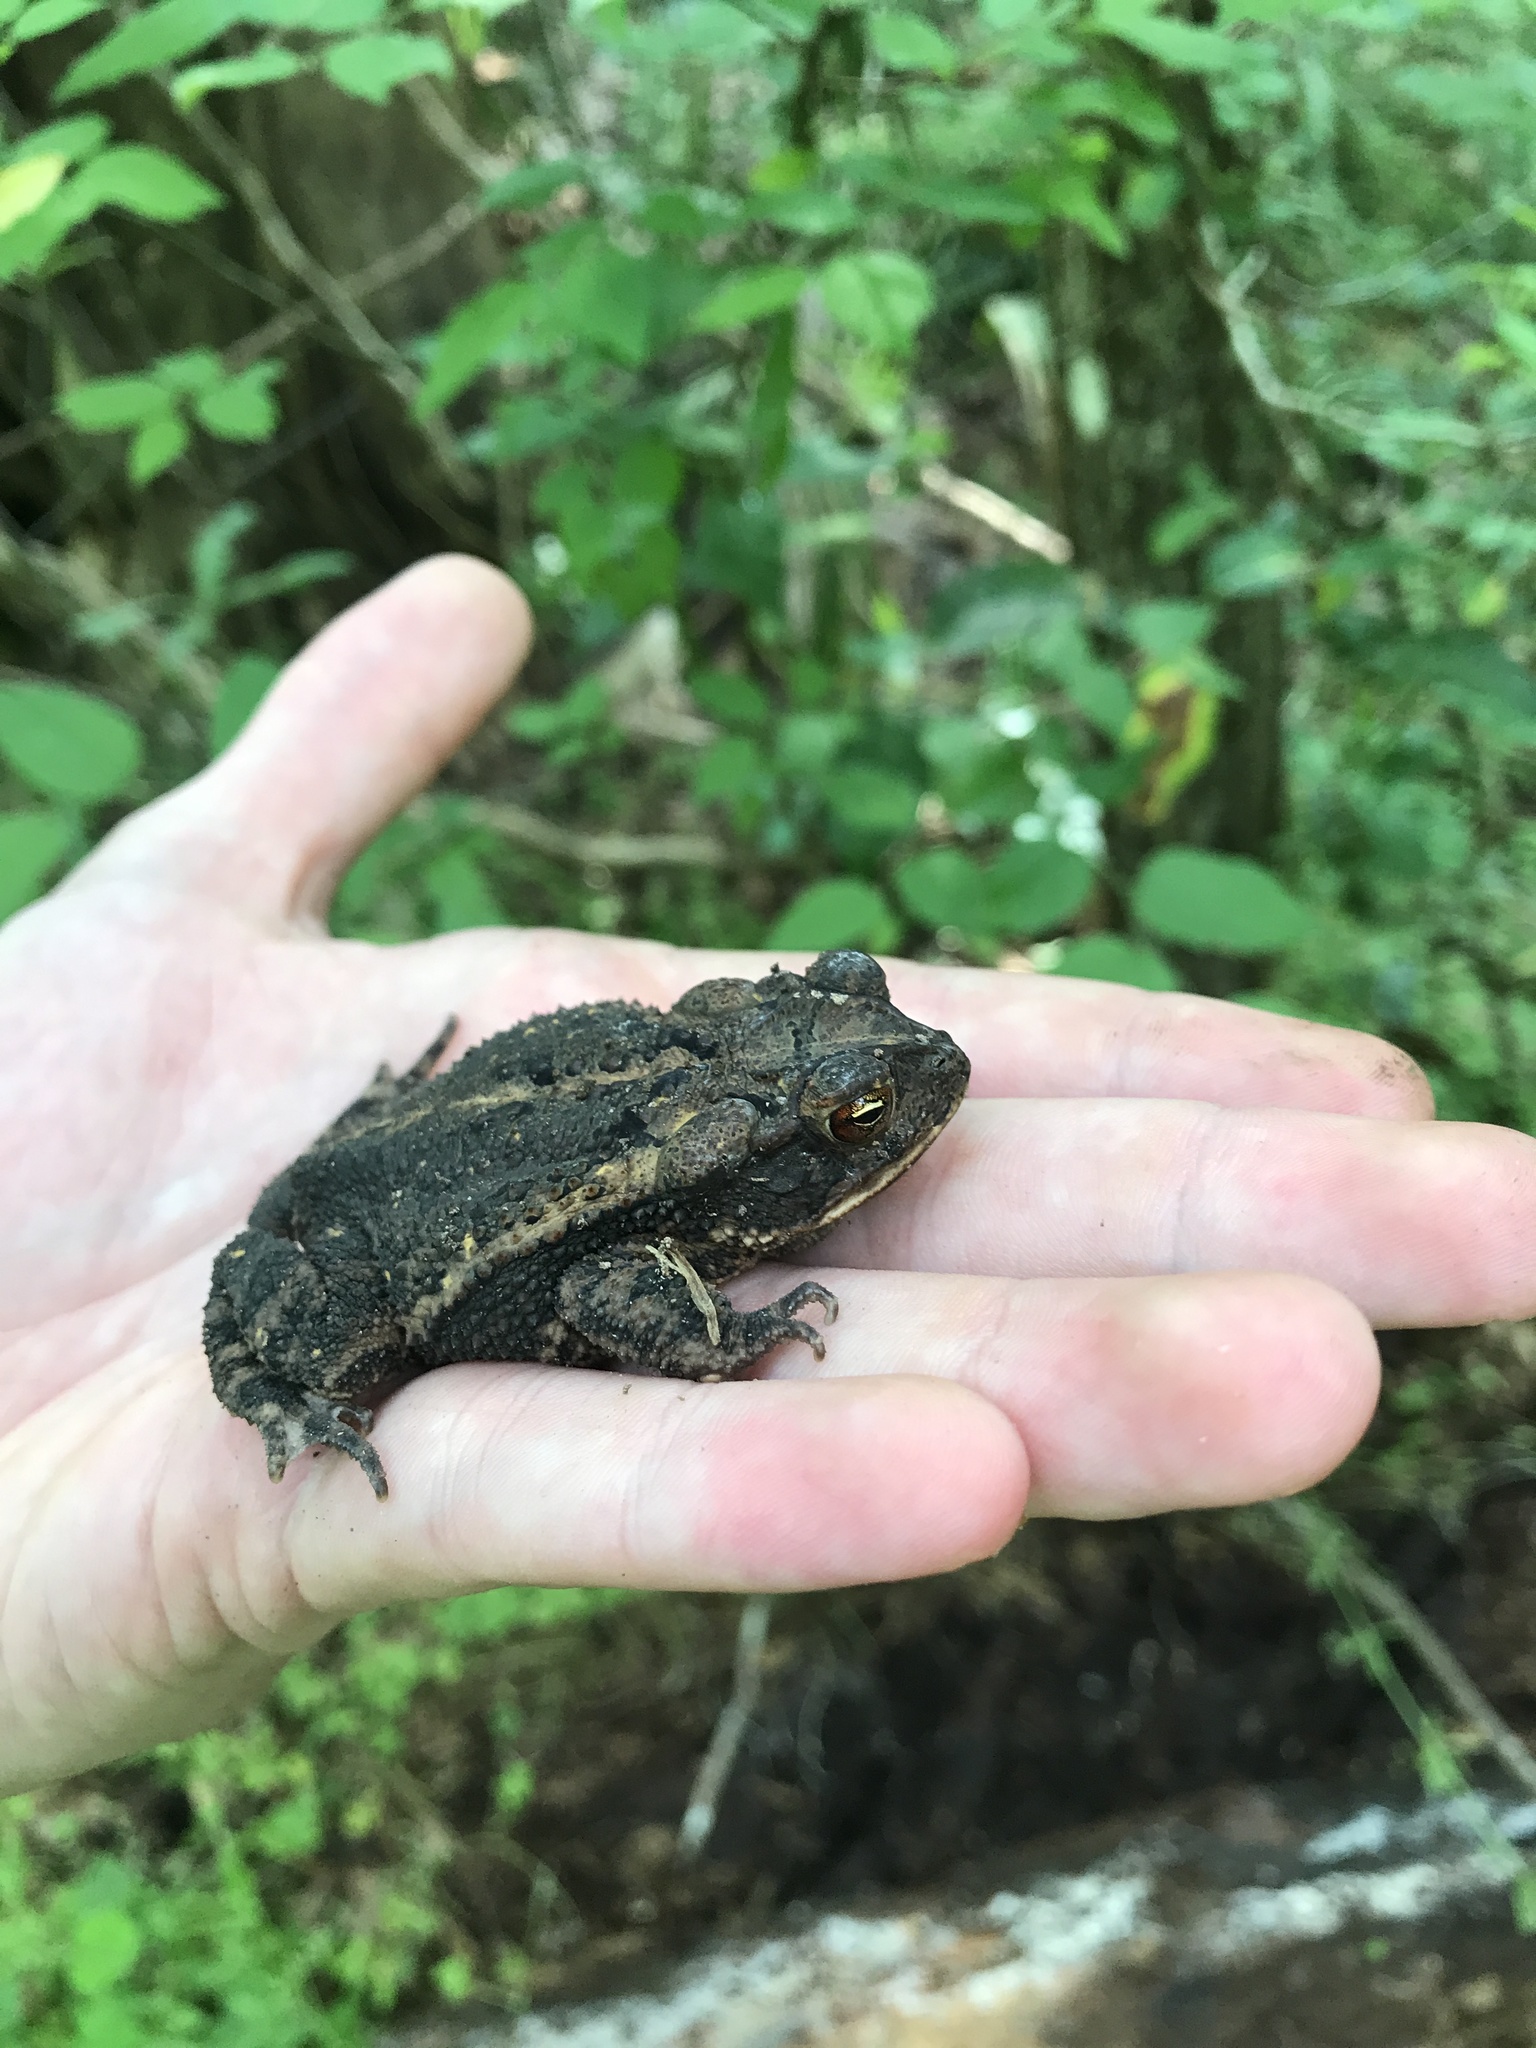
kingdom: Animalia
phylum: Chordata
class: Amphibia
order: Anura
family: Bufonidae
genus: Incilius
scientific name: Incilius nebulifer
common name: Gulf coast toad
